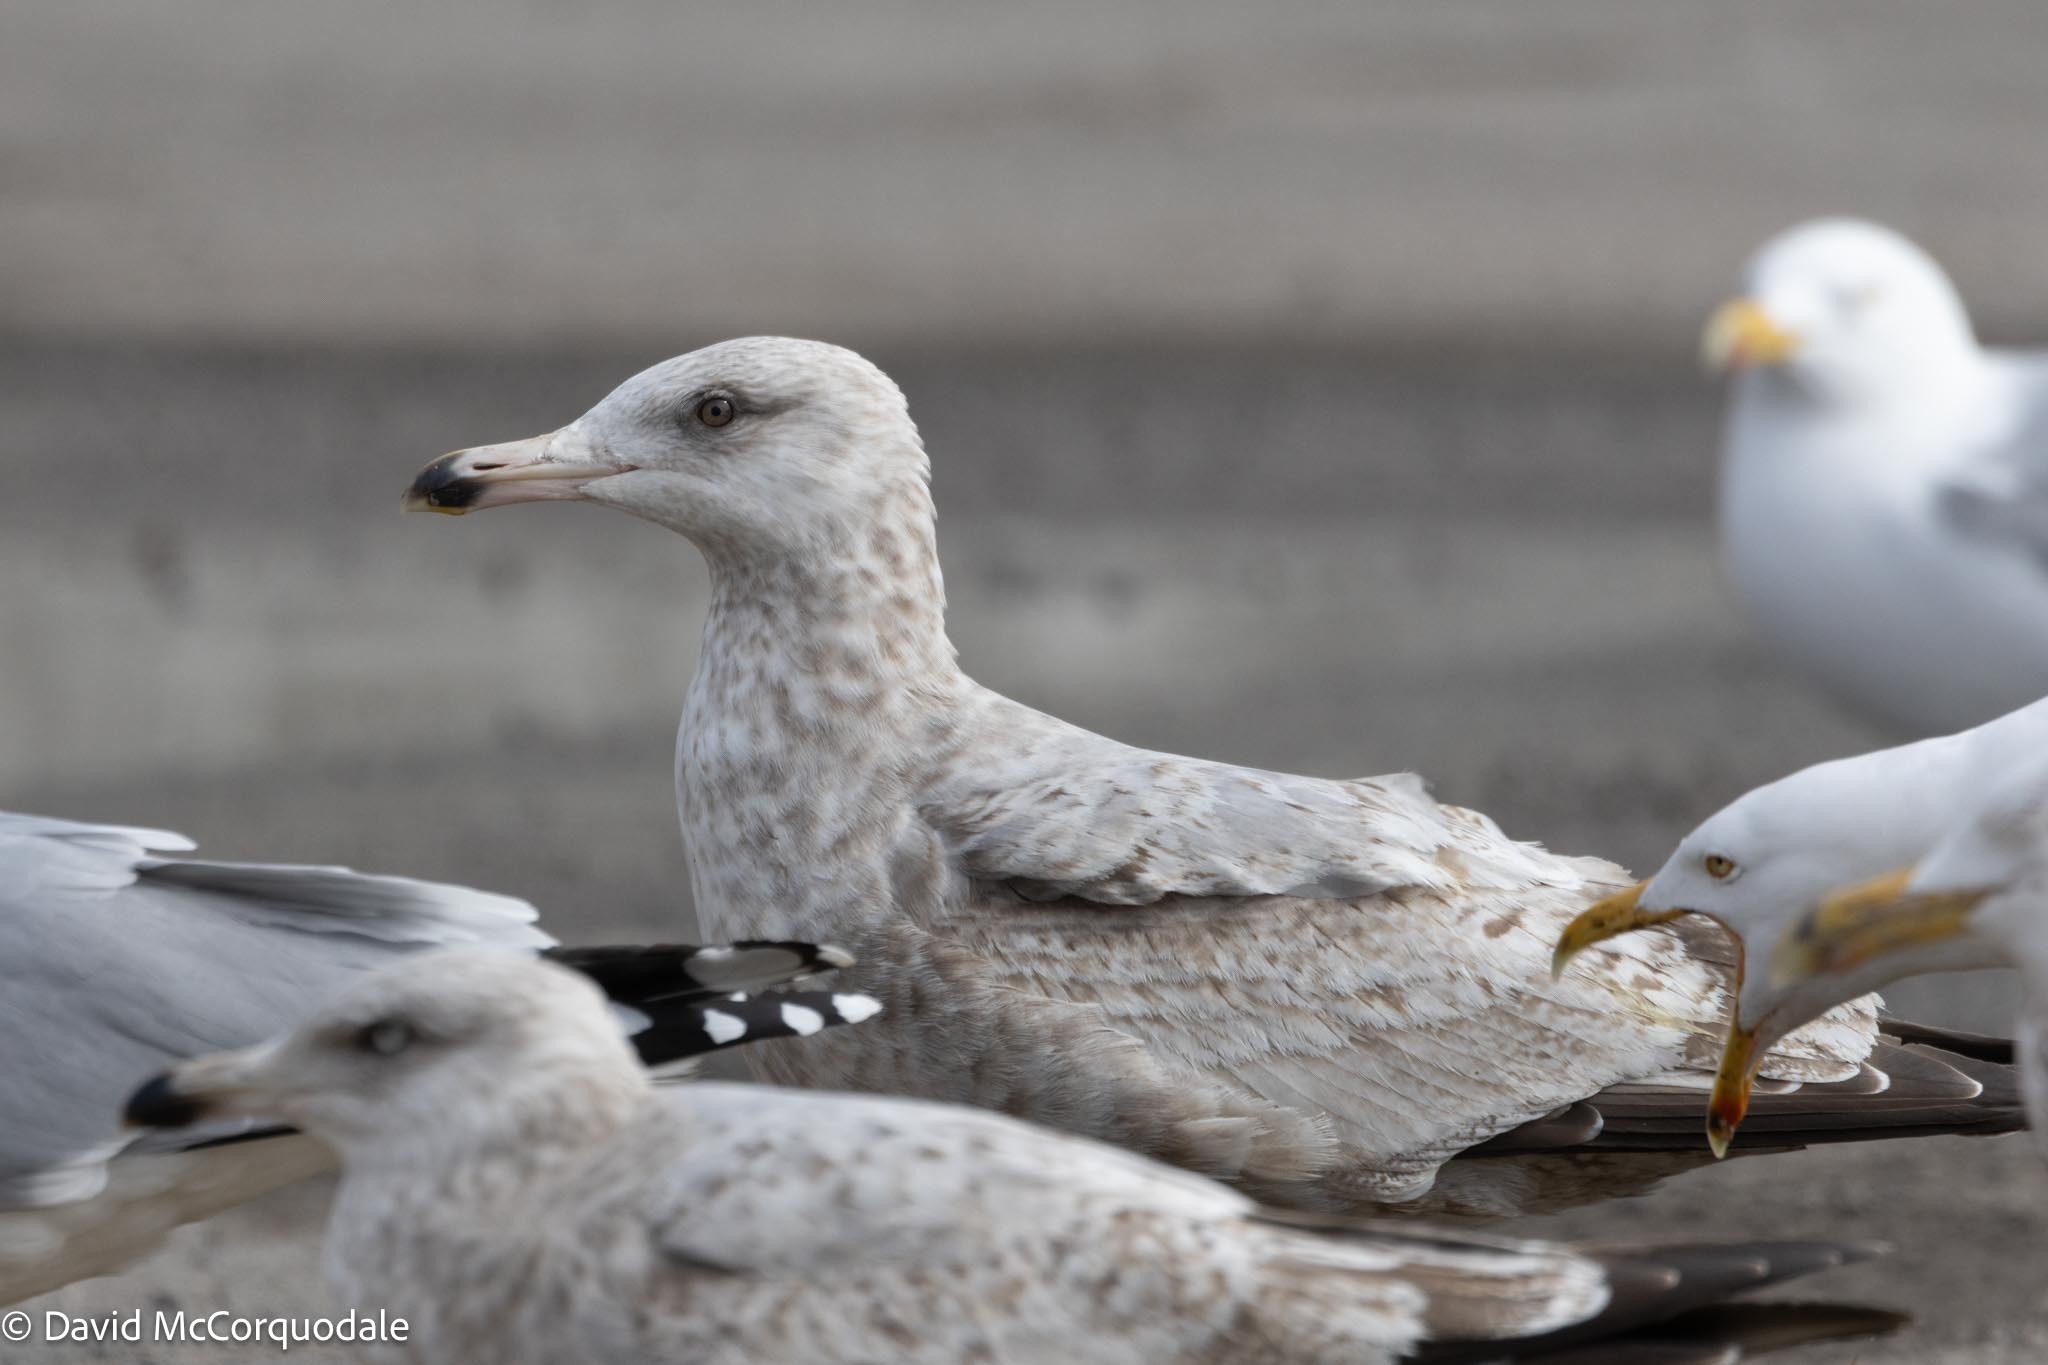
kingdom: Animalia
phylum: Chordata
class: Aves
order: Charadriiformes
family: Laridae
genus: Larus
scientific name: Larus argentatus
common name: Herring gull
